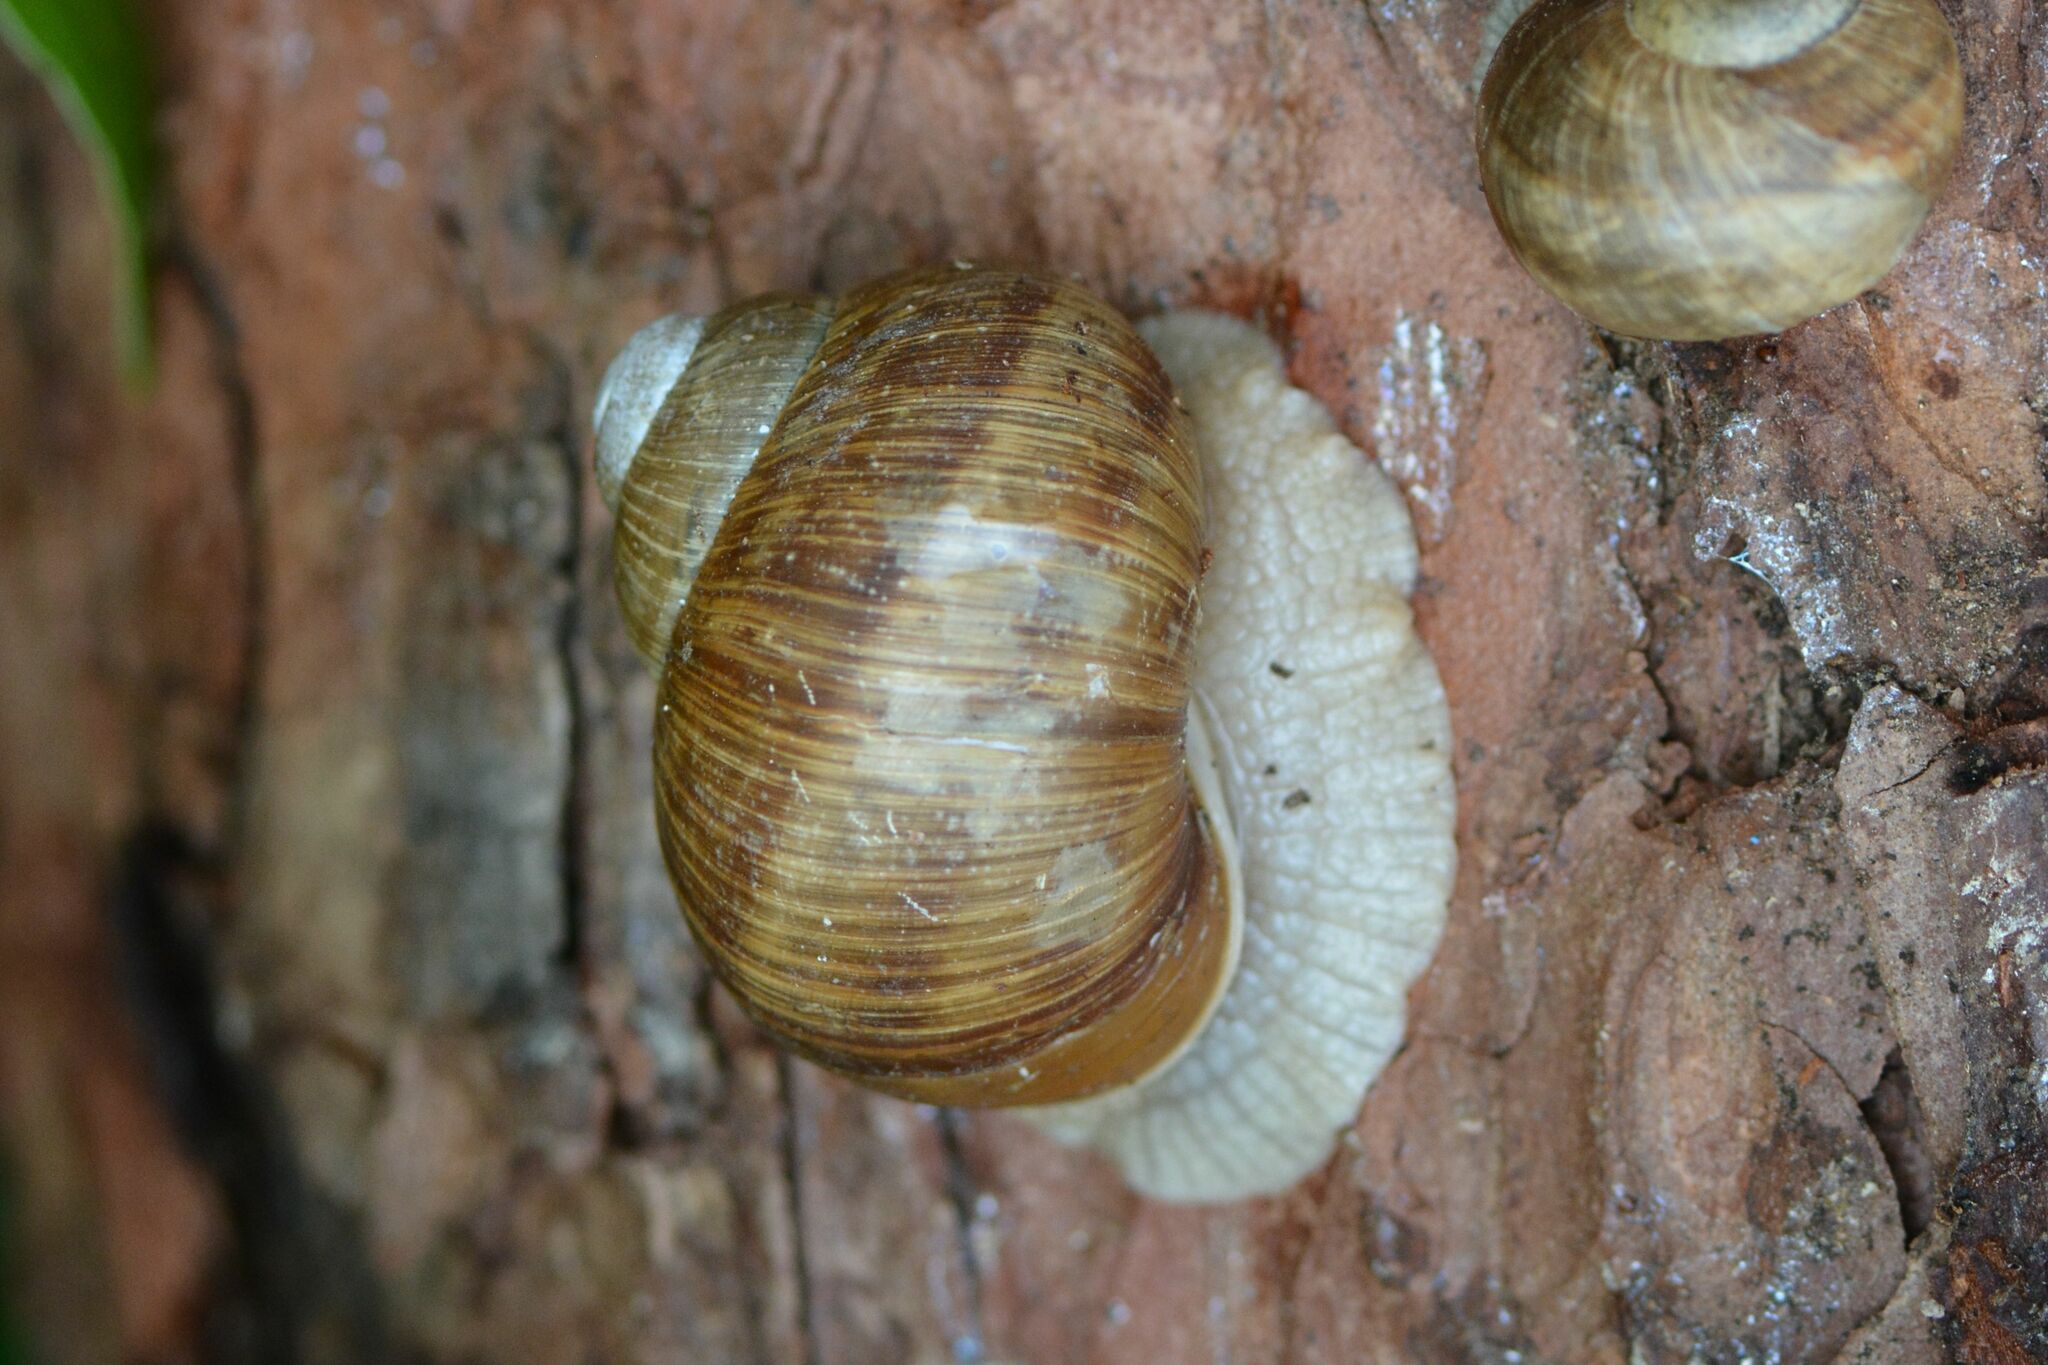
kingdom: Animalia
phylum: Mollusca
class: Gastropoda
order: Stylommatophora
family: Helicidae
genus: Helix
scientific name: Helix pomatia
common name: Roman snail
